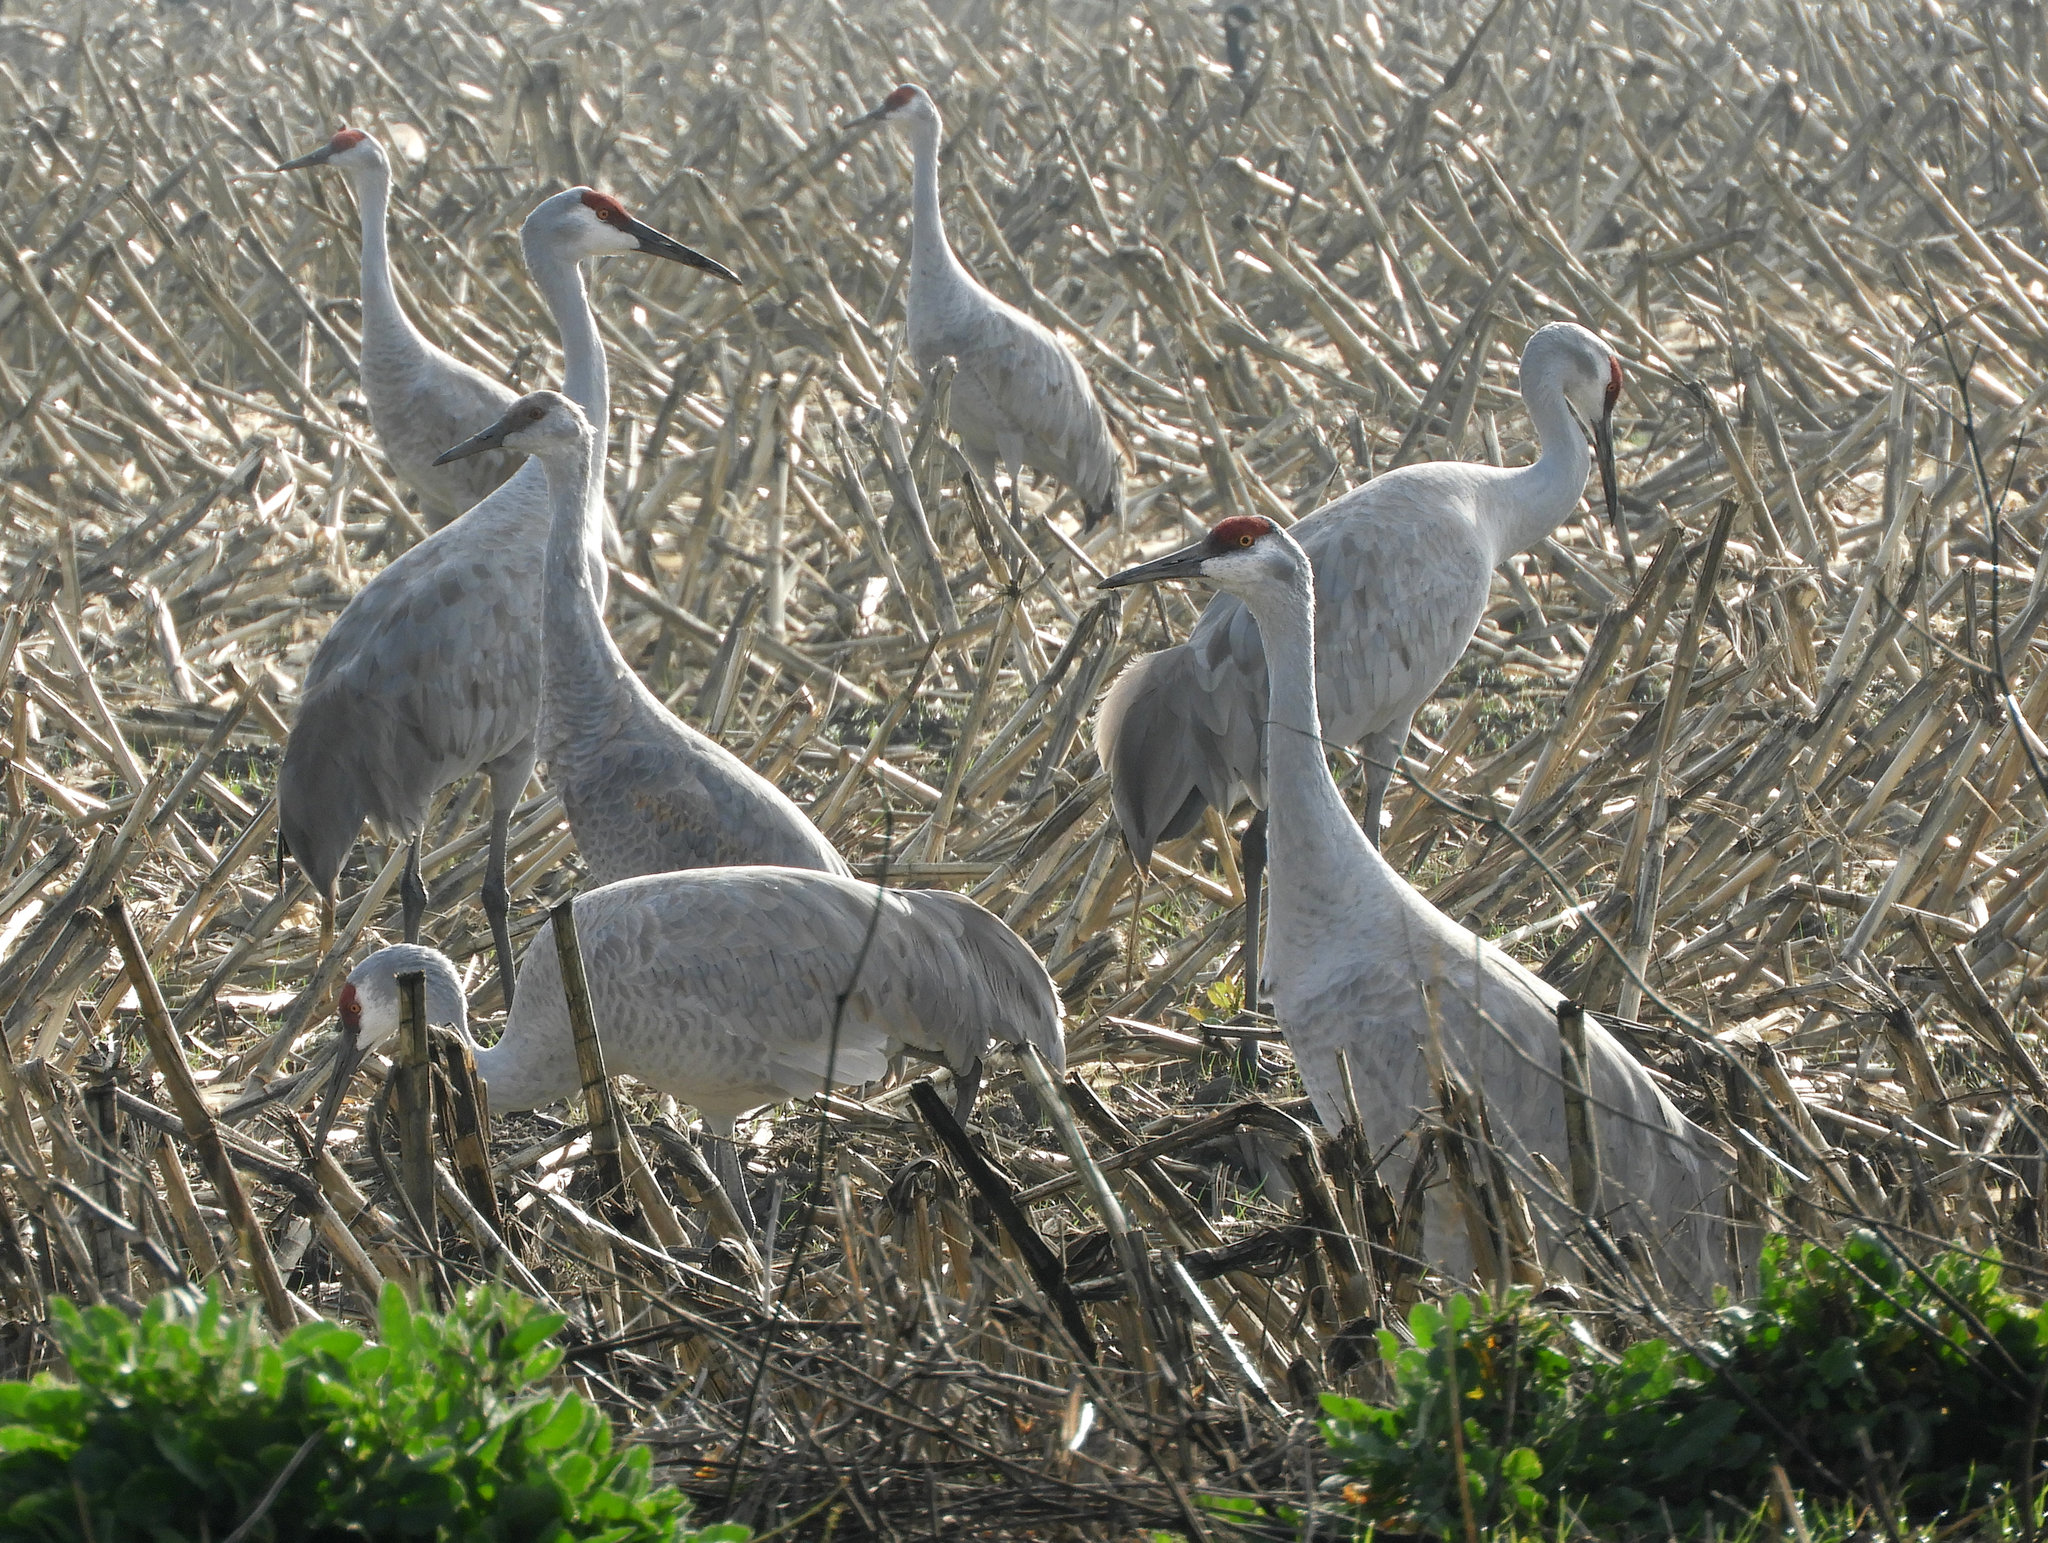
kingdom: Animalia
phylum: Chordata
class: Aves
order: Gruiformes
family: Gruidae
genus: Grus
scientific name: Grus canadensis
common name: Sandhill crane
